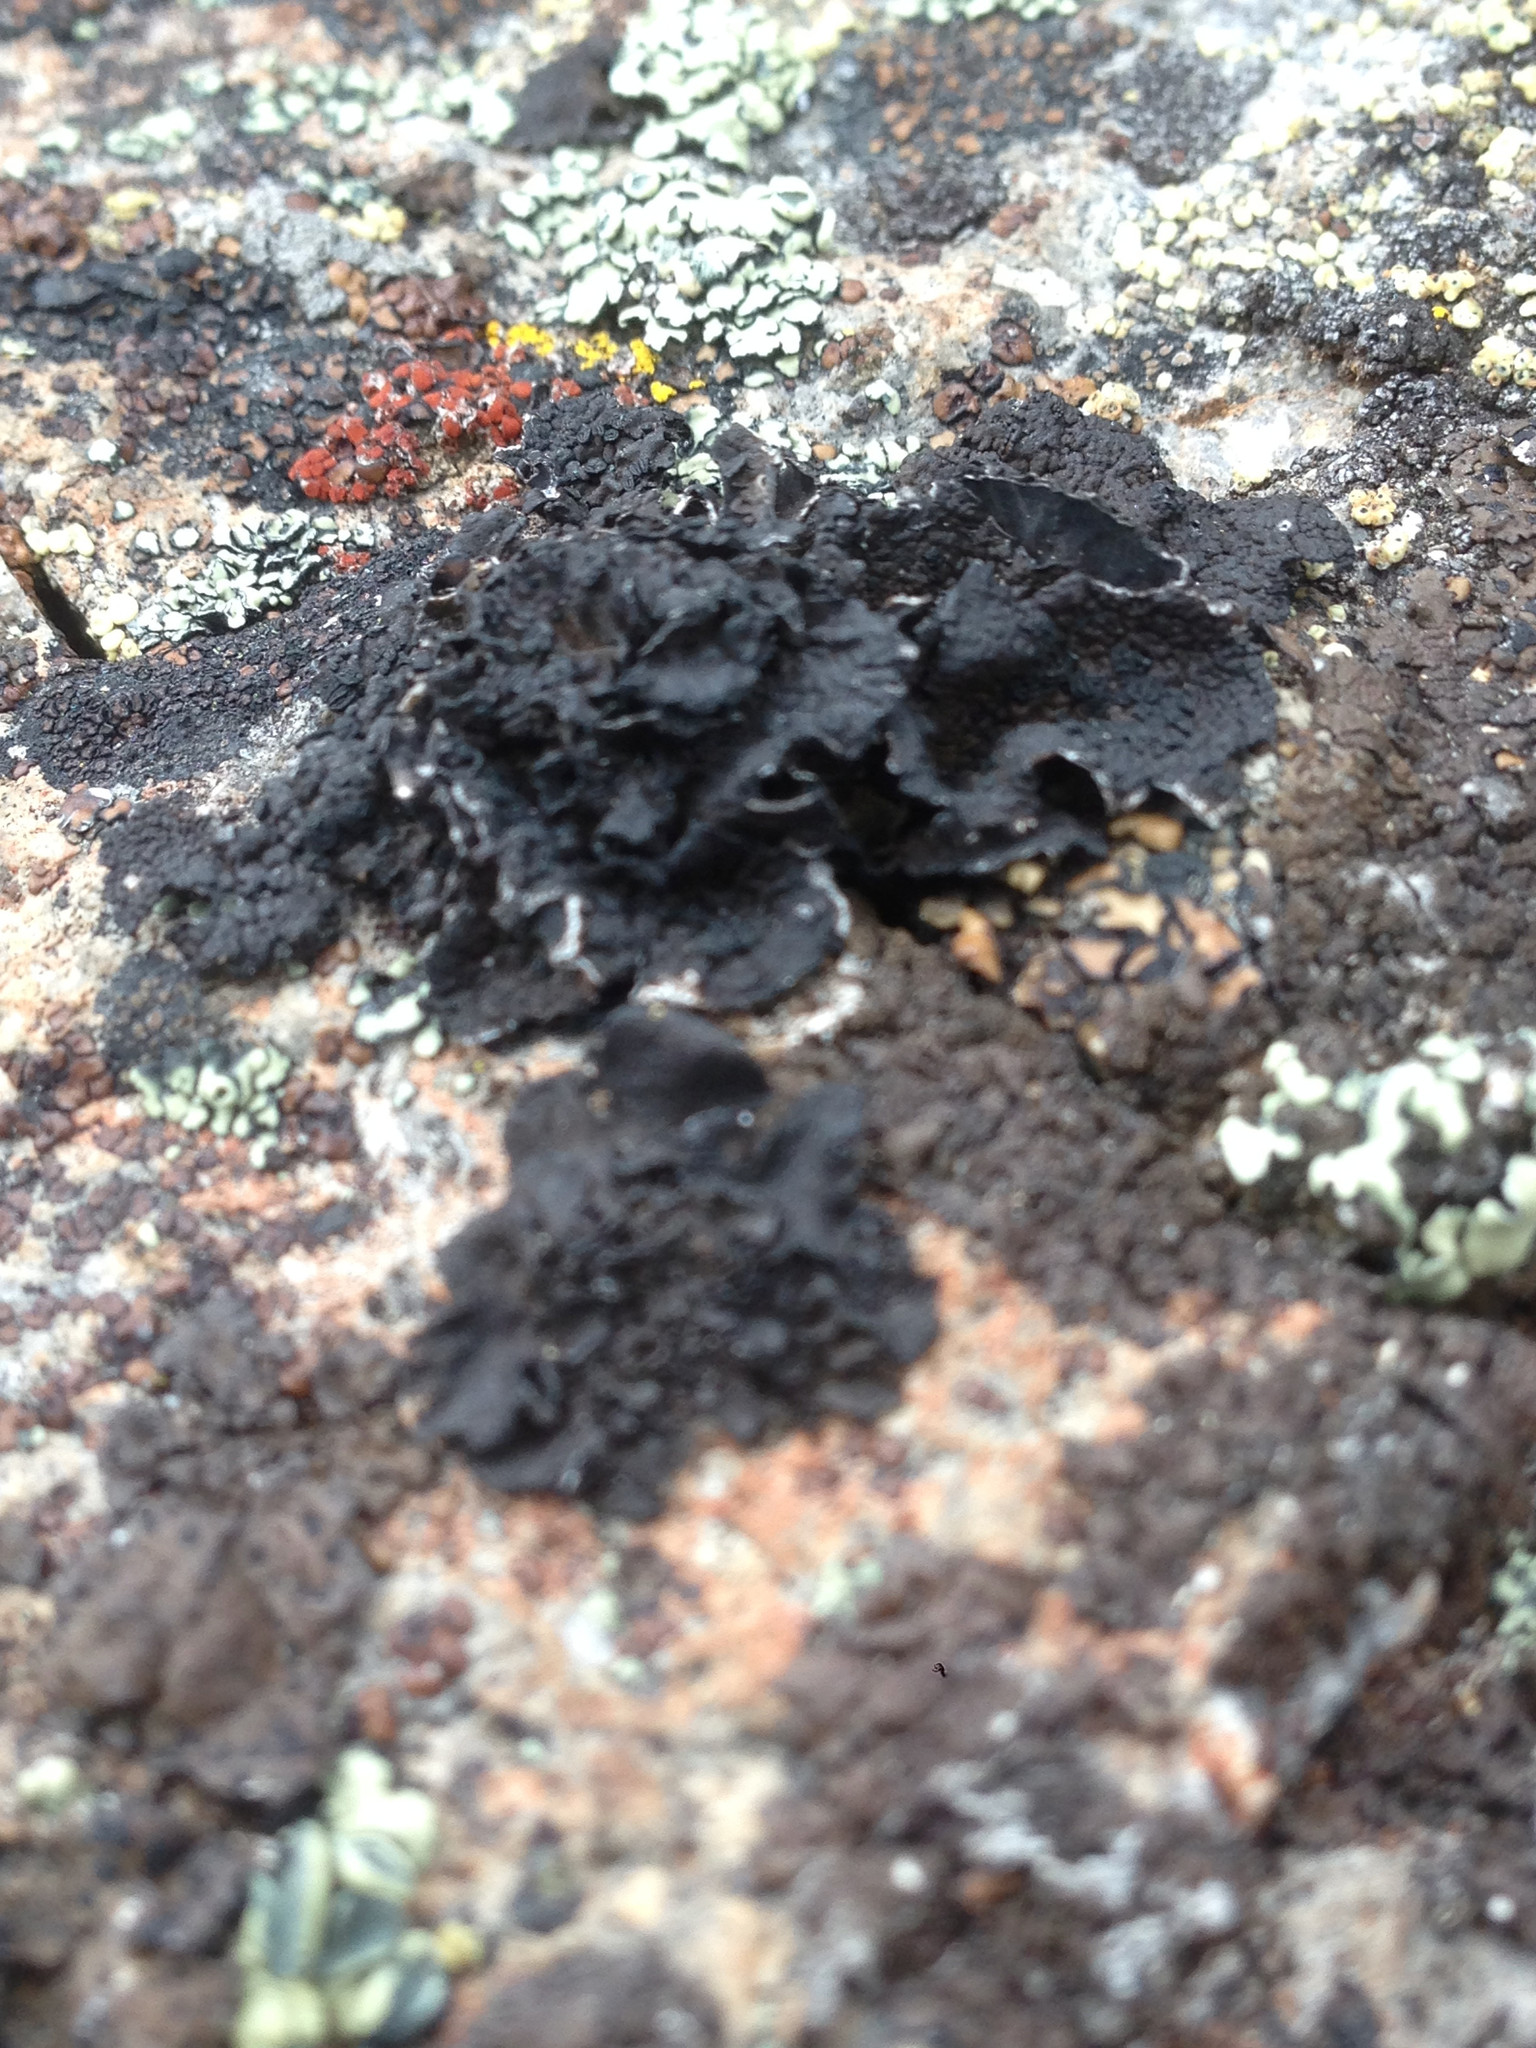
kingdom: Fungi
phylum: Ascomycota
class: Lecanoromycetes
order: Umbilicariales
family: Umbilicariaceae
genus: Umbilicaria
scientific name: Umbilicaria hyperborea
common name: Blistered rock tripe
